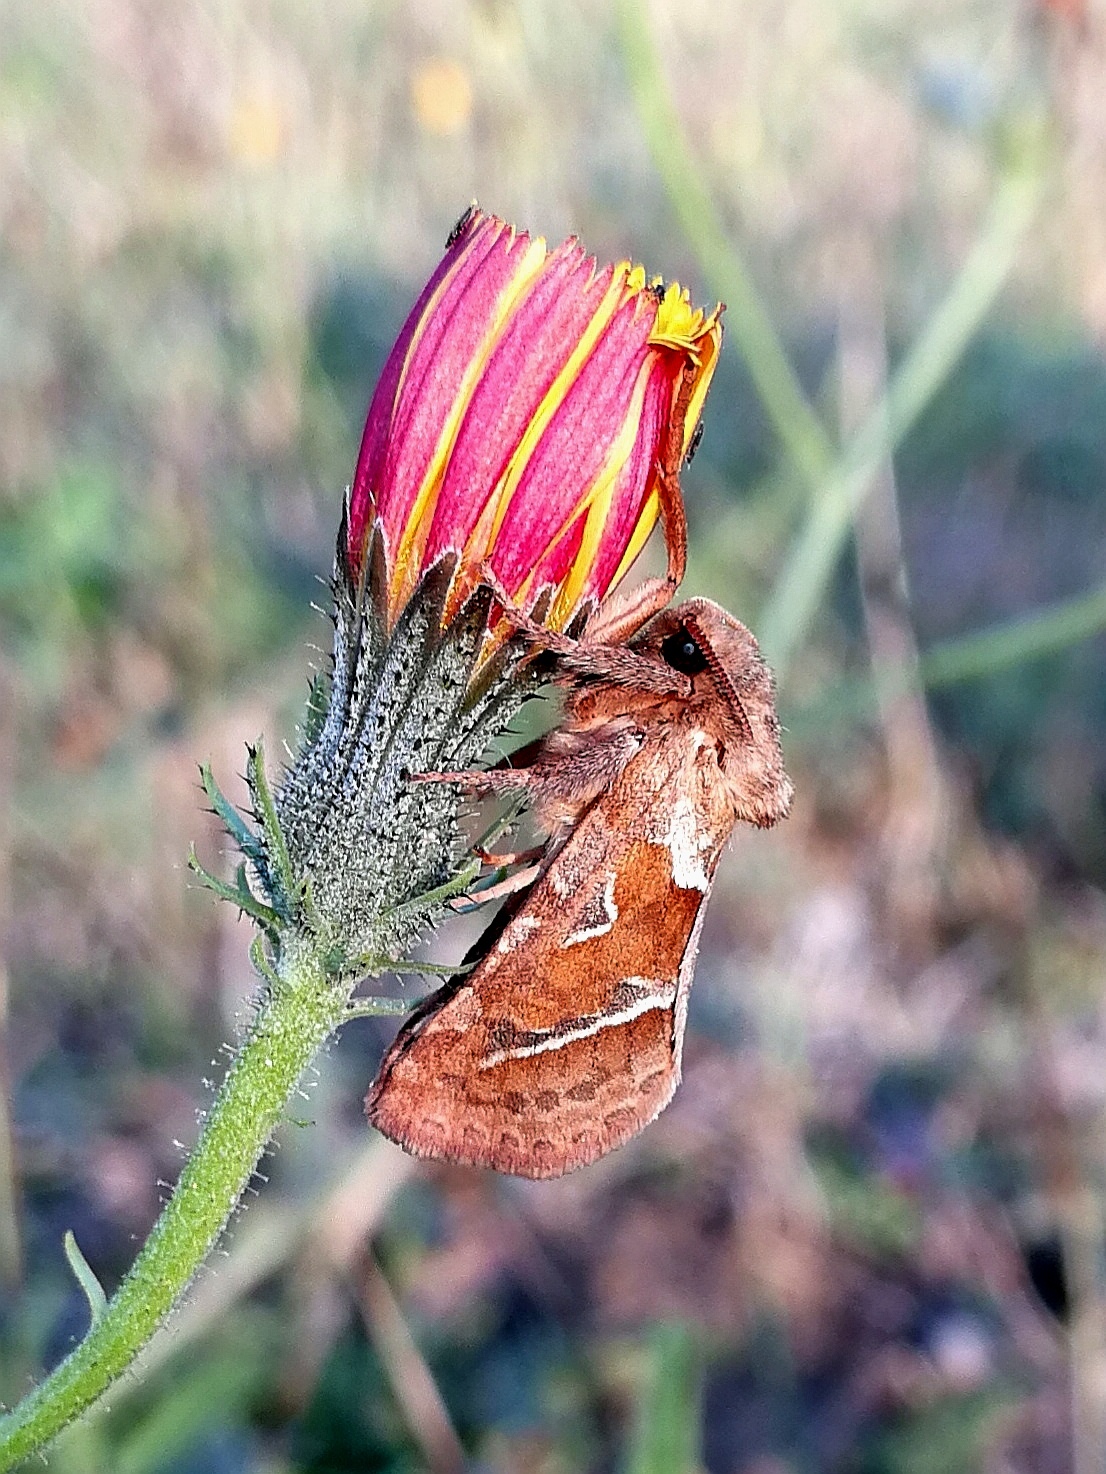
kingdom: Animalia
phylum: Arthropoda
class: Insecta
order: Lepidoptera
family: Hepialidae
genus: Triodia
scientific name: Triodia sylvina
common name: Orange swift
